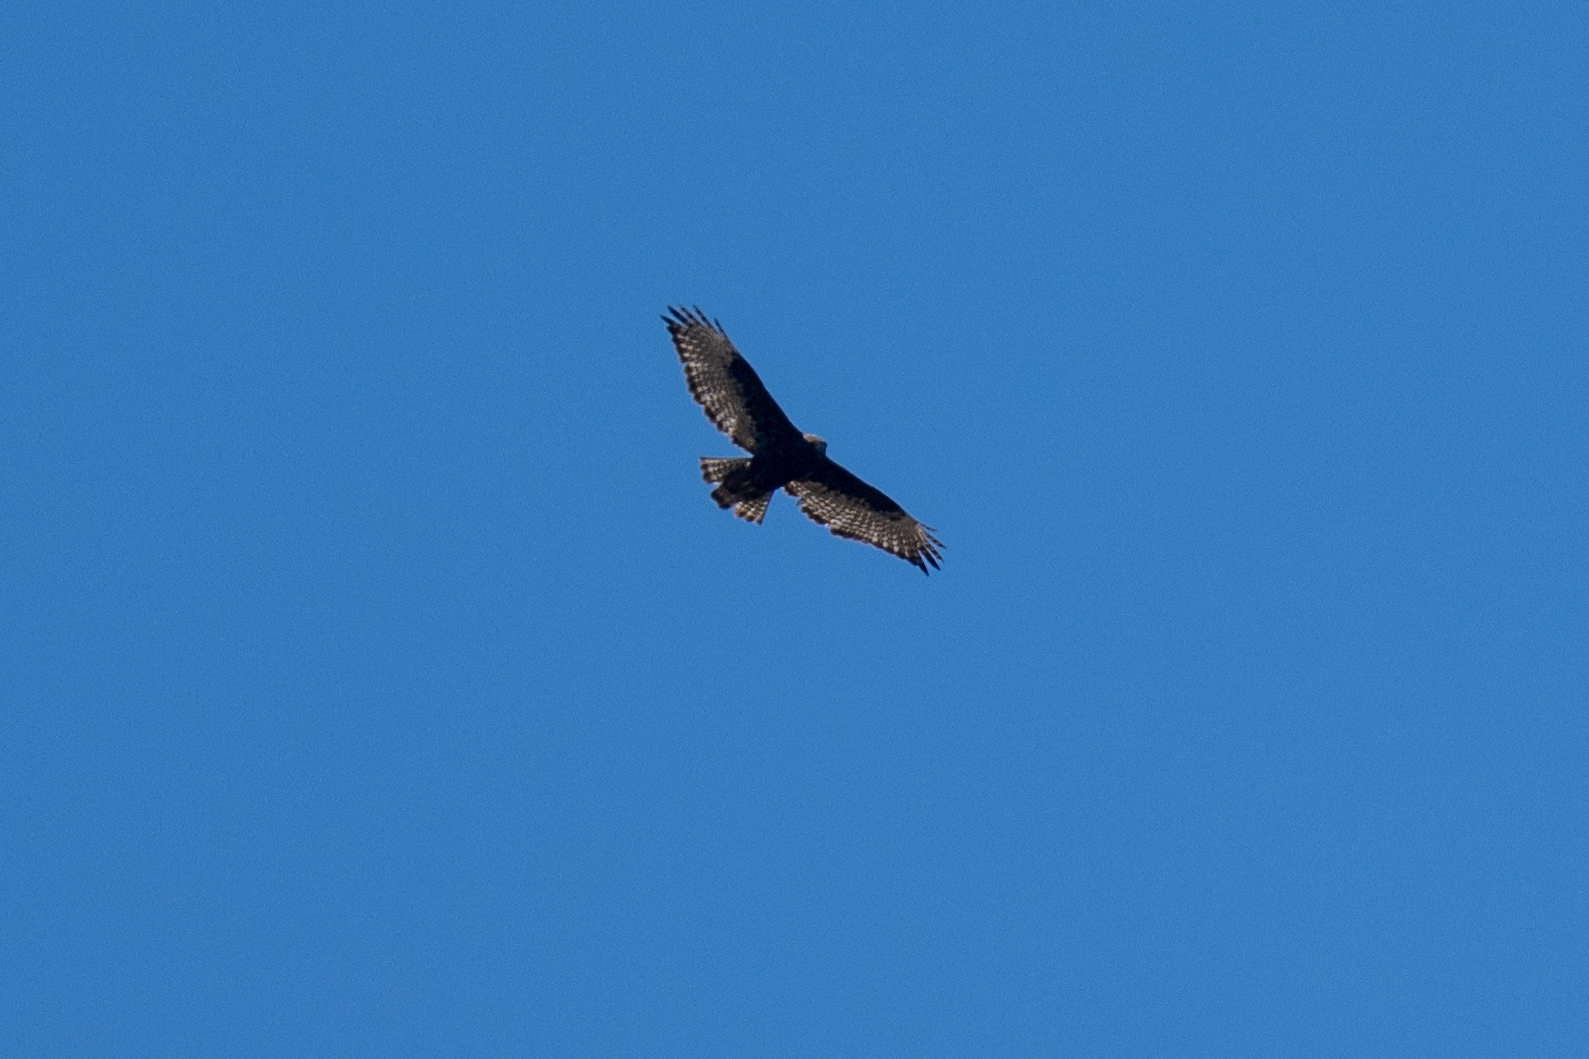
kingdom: Animalia
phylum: Chordata
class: Aves
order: Accipitriformes
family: Accipitridae
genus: Buteo
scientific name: Buteo jamaicensis
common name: Red-tailed hawk
